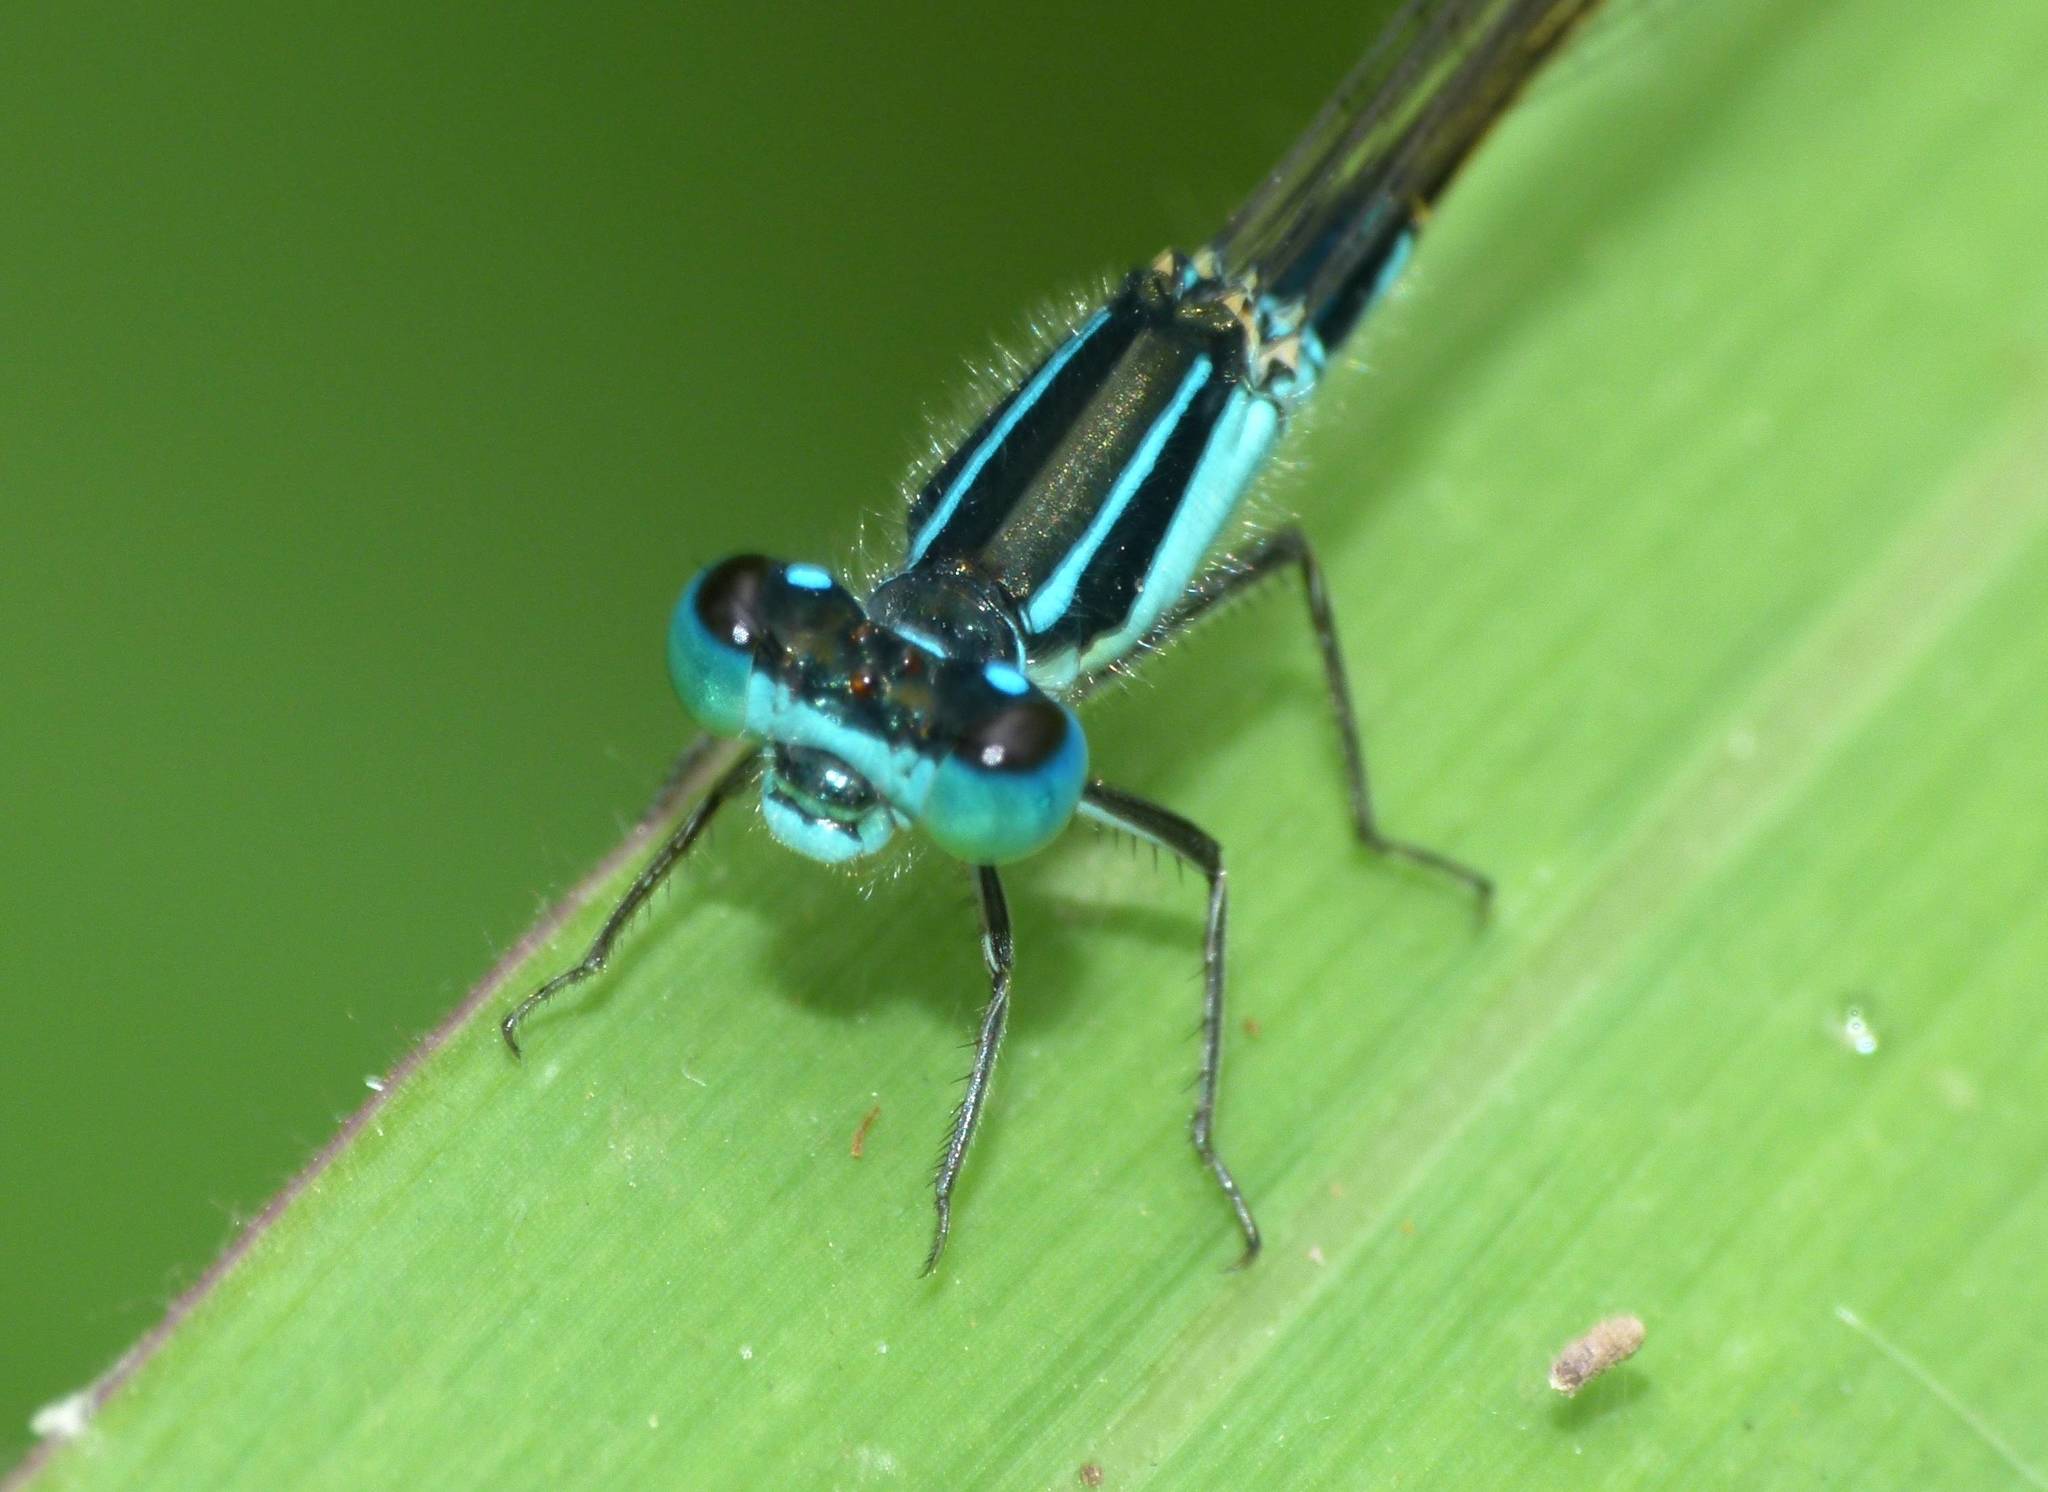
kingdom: Animalia
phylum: Arthropoda
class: Insecta
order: Odonata
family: Coenagrionidae
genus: Ischnura
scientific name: Ischnura heterosticta
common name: Common bluetail
